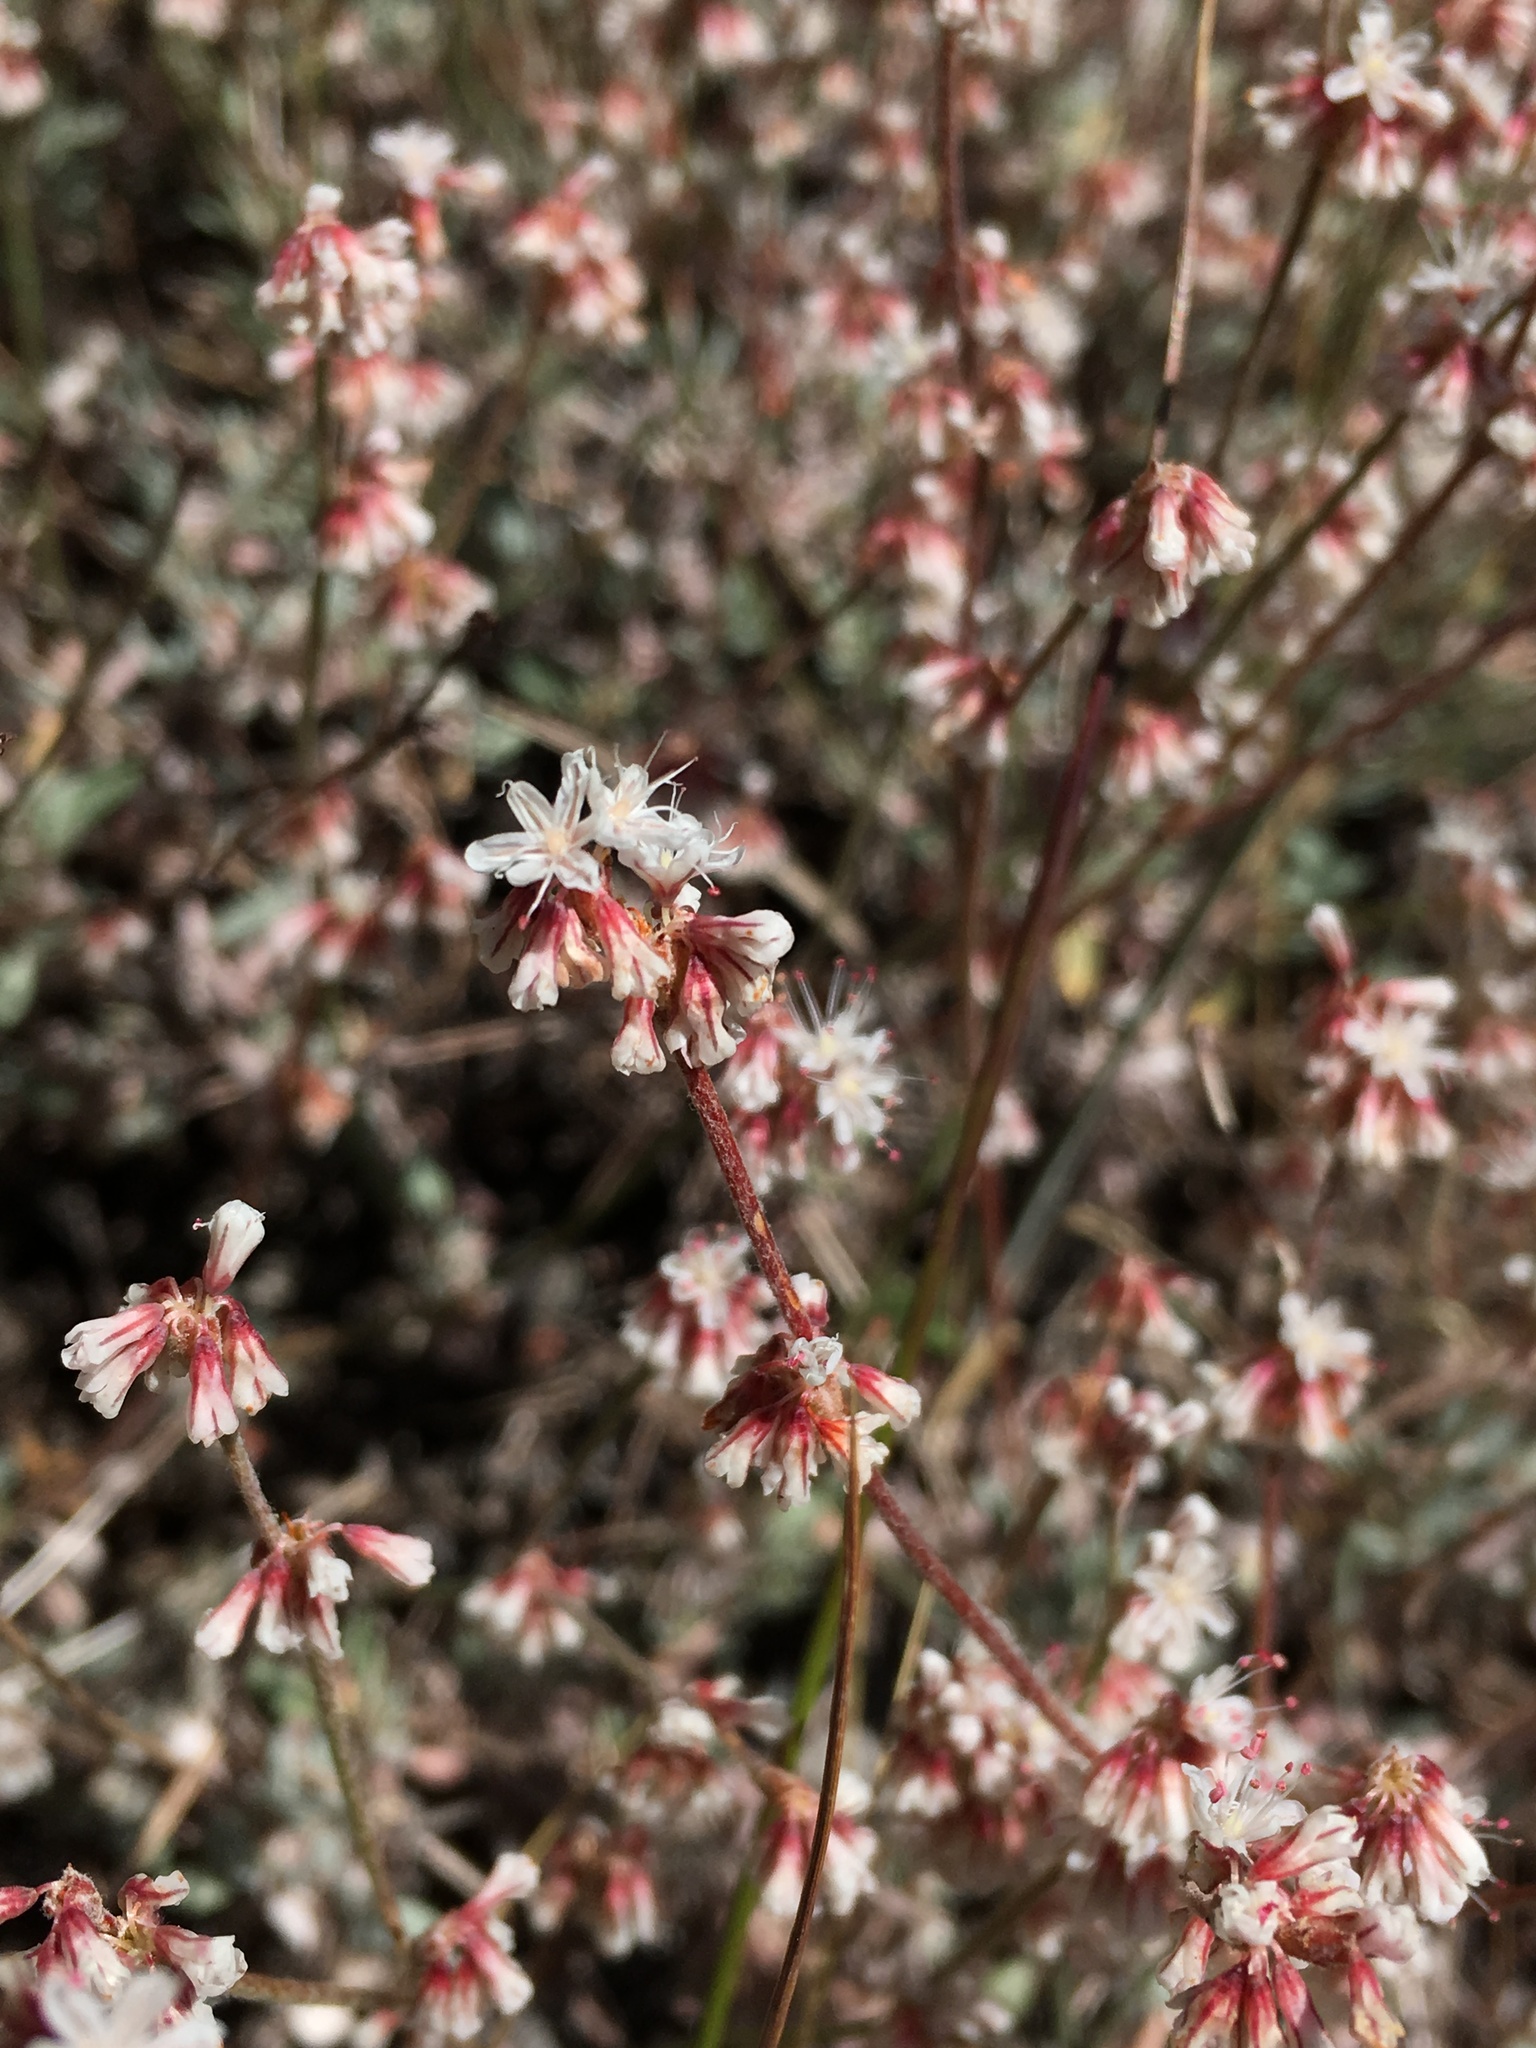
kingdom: Plantae
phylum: Tracheophyta
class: Magnoliopsida
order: Caryophyllales
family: Polygonaceae
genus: Eriogonum
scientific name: Eriogonum wrightii
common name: Bastard-sage
